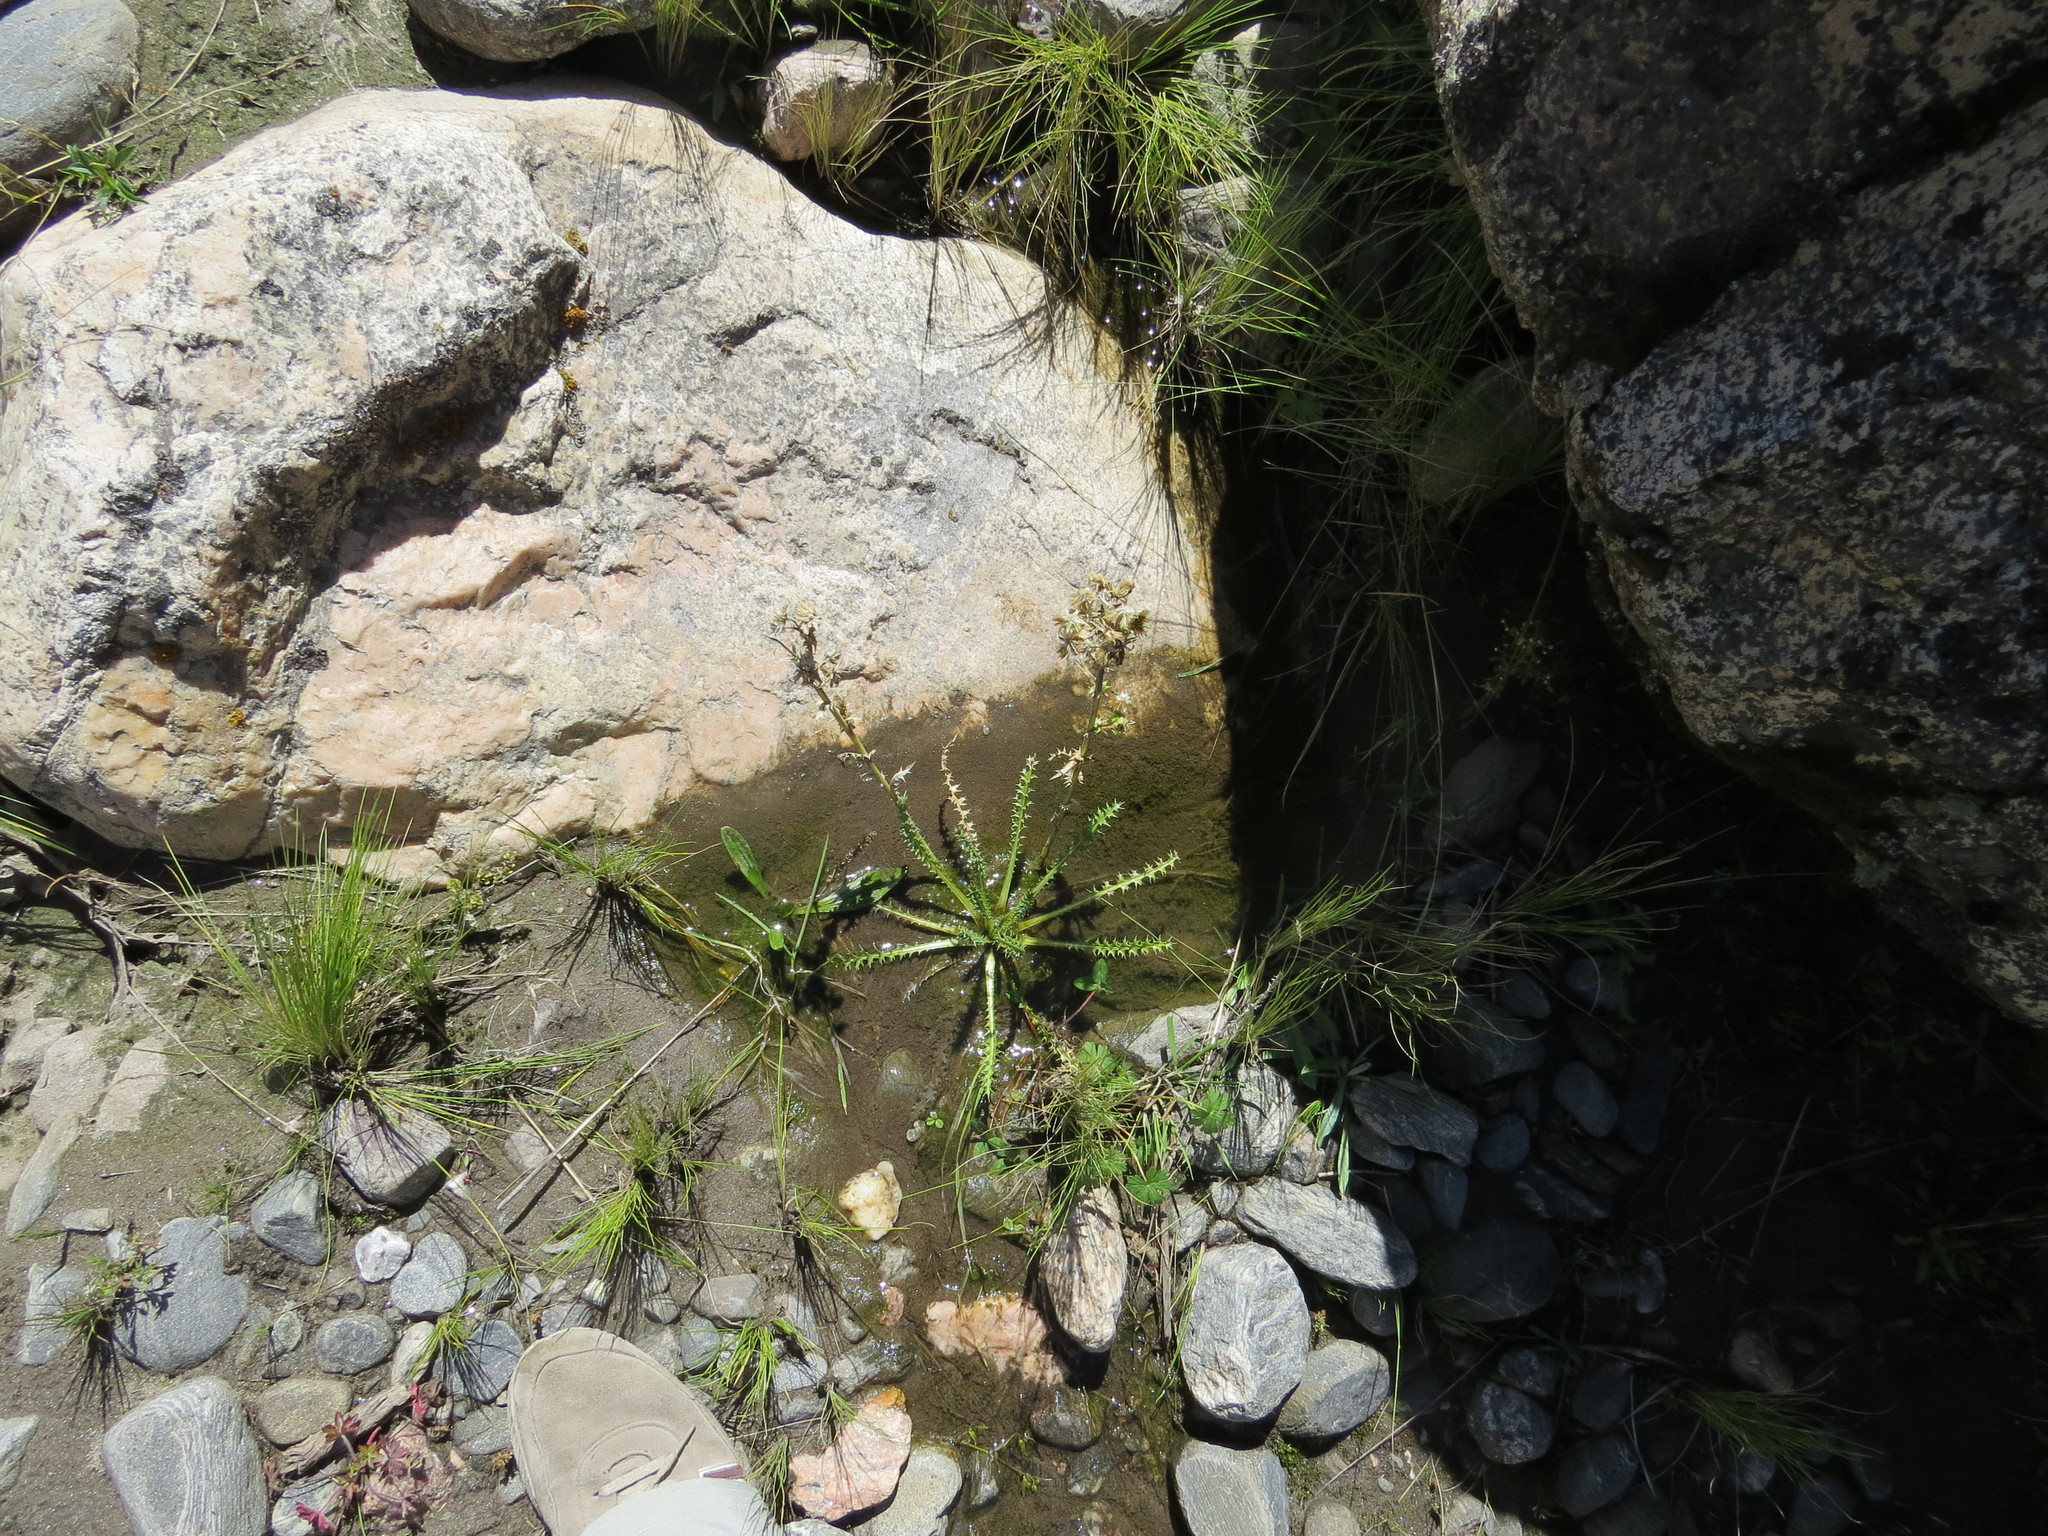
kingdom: Plantae
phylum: Tracheophyta
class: Magnoliopsida
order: Asterales
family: Asteraceae
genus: Perezia
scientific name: Perezia multiflora
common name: Perezia
